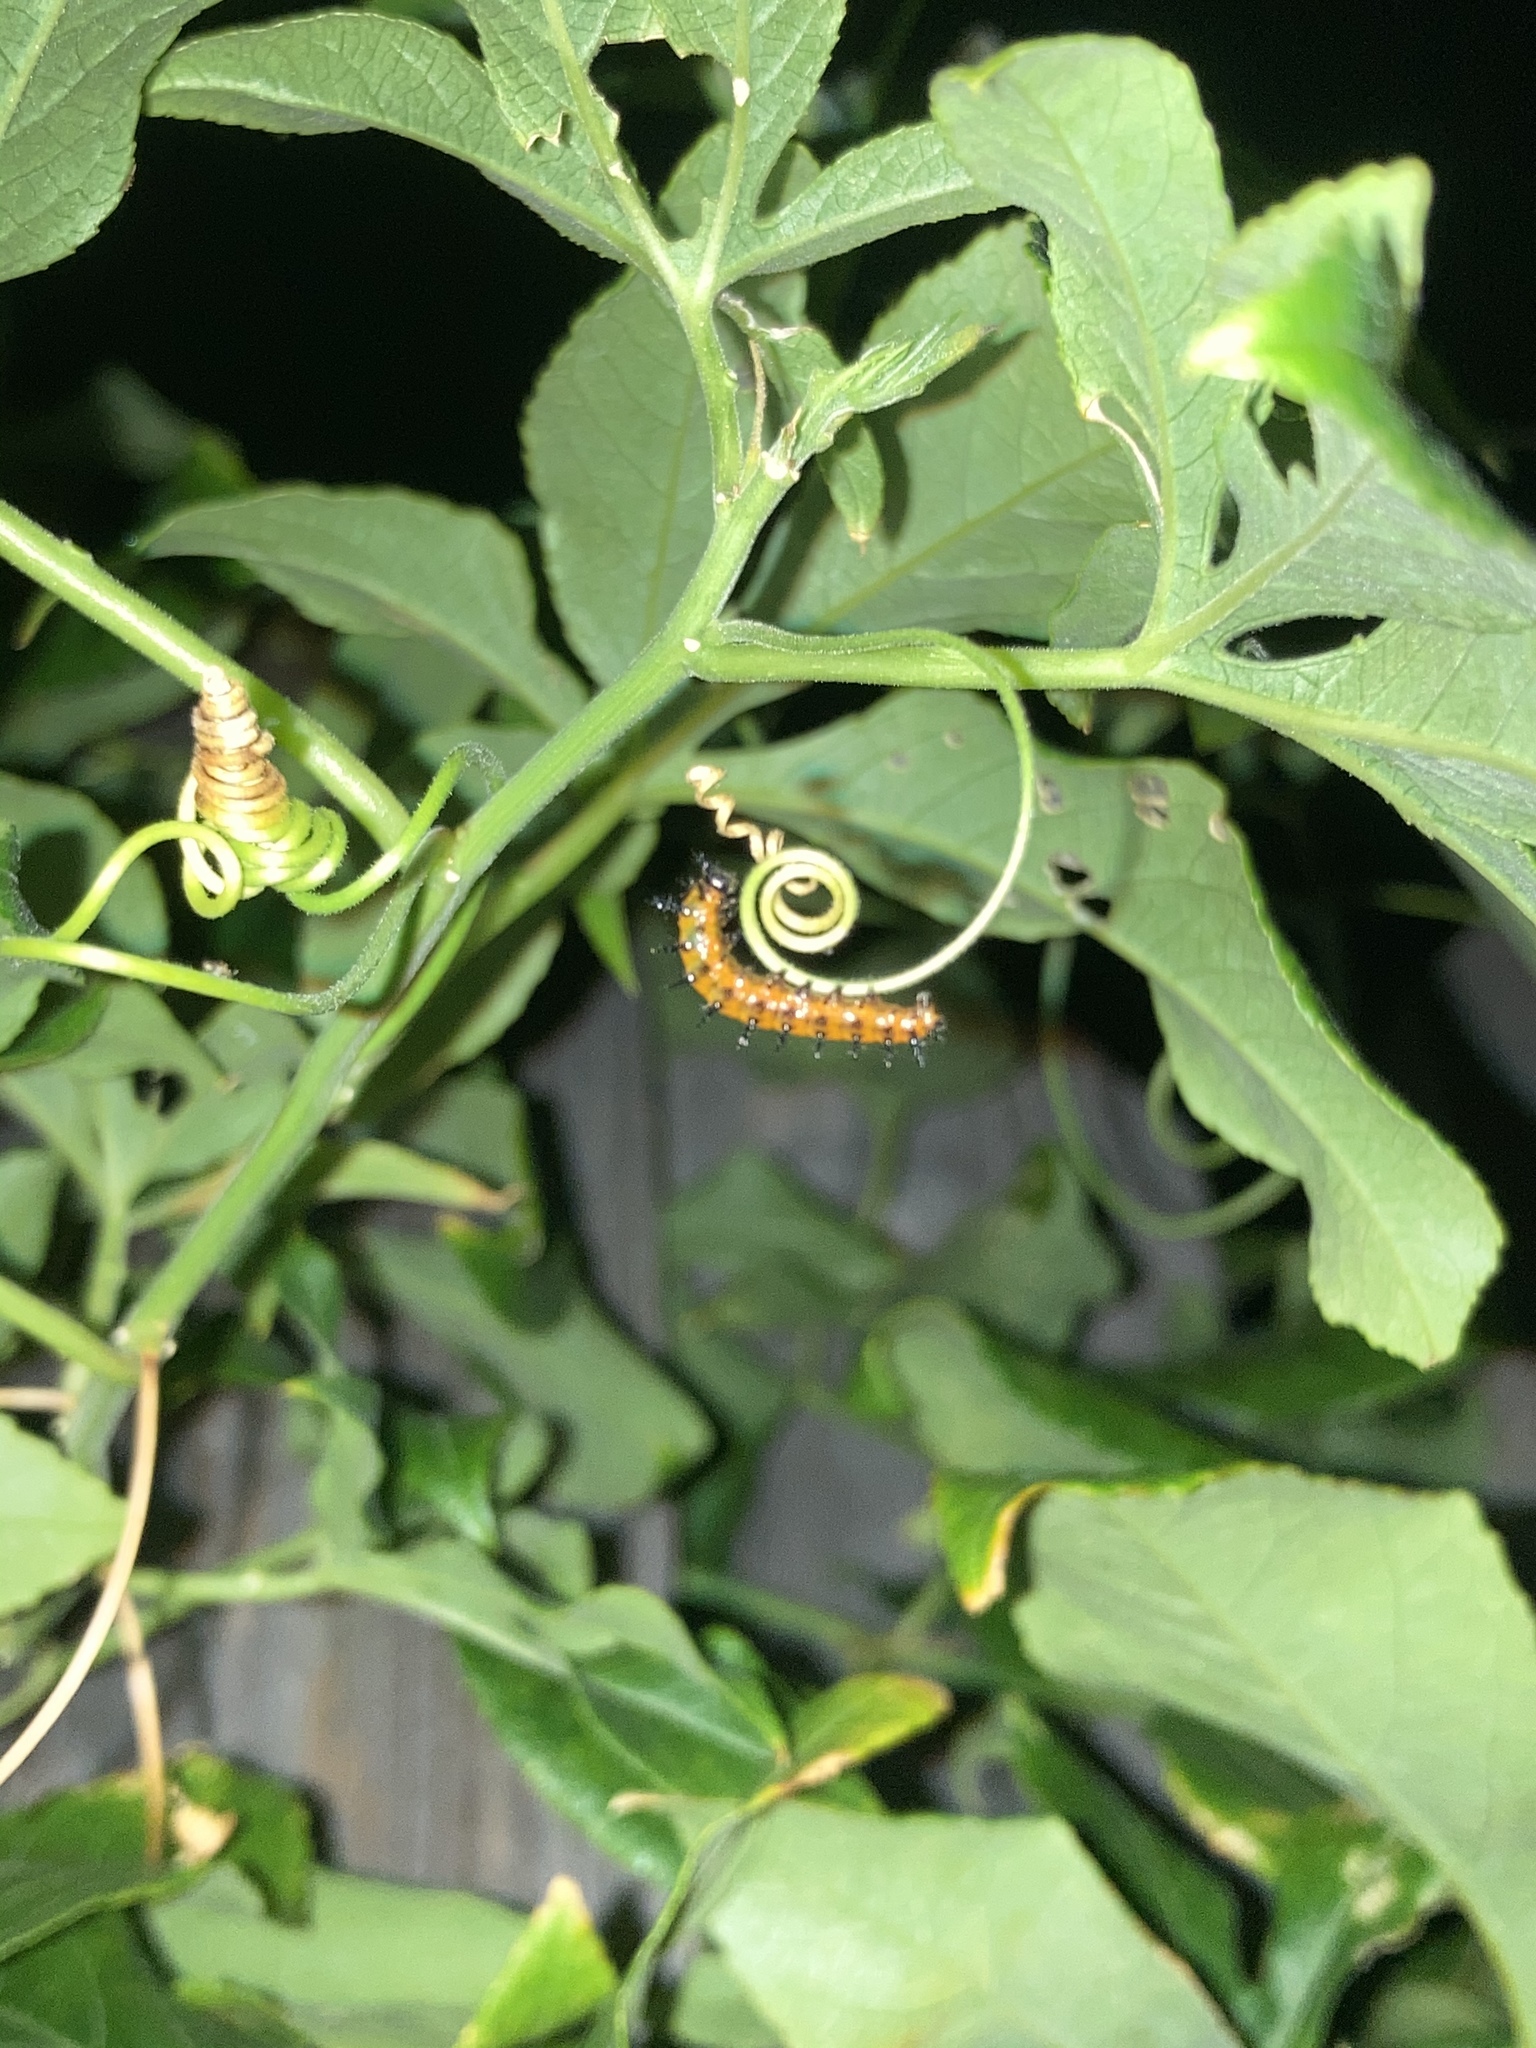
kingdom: Animalia
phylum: Arthropoda
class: Insecta
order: Lepidoptera
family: Nymphalidae
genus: Dione
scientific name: Dione vanillae
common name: Gulf fritillary
